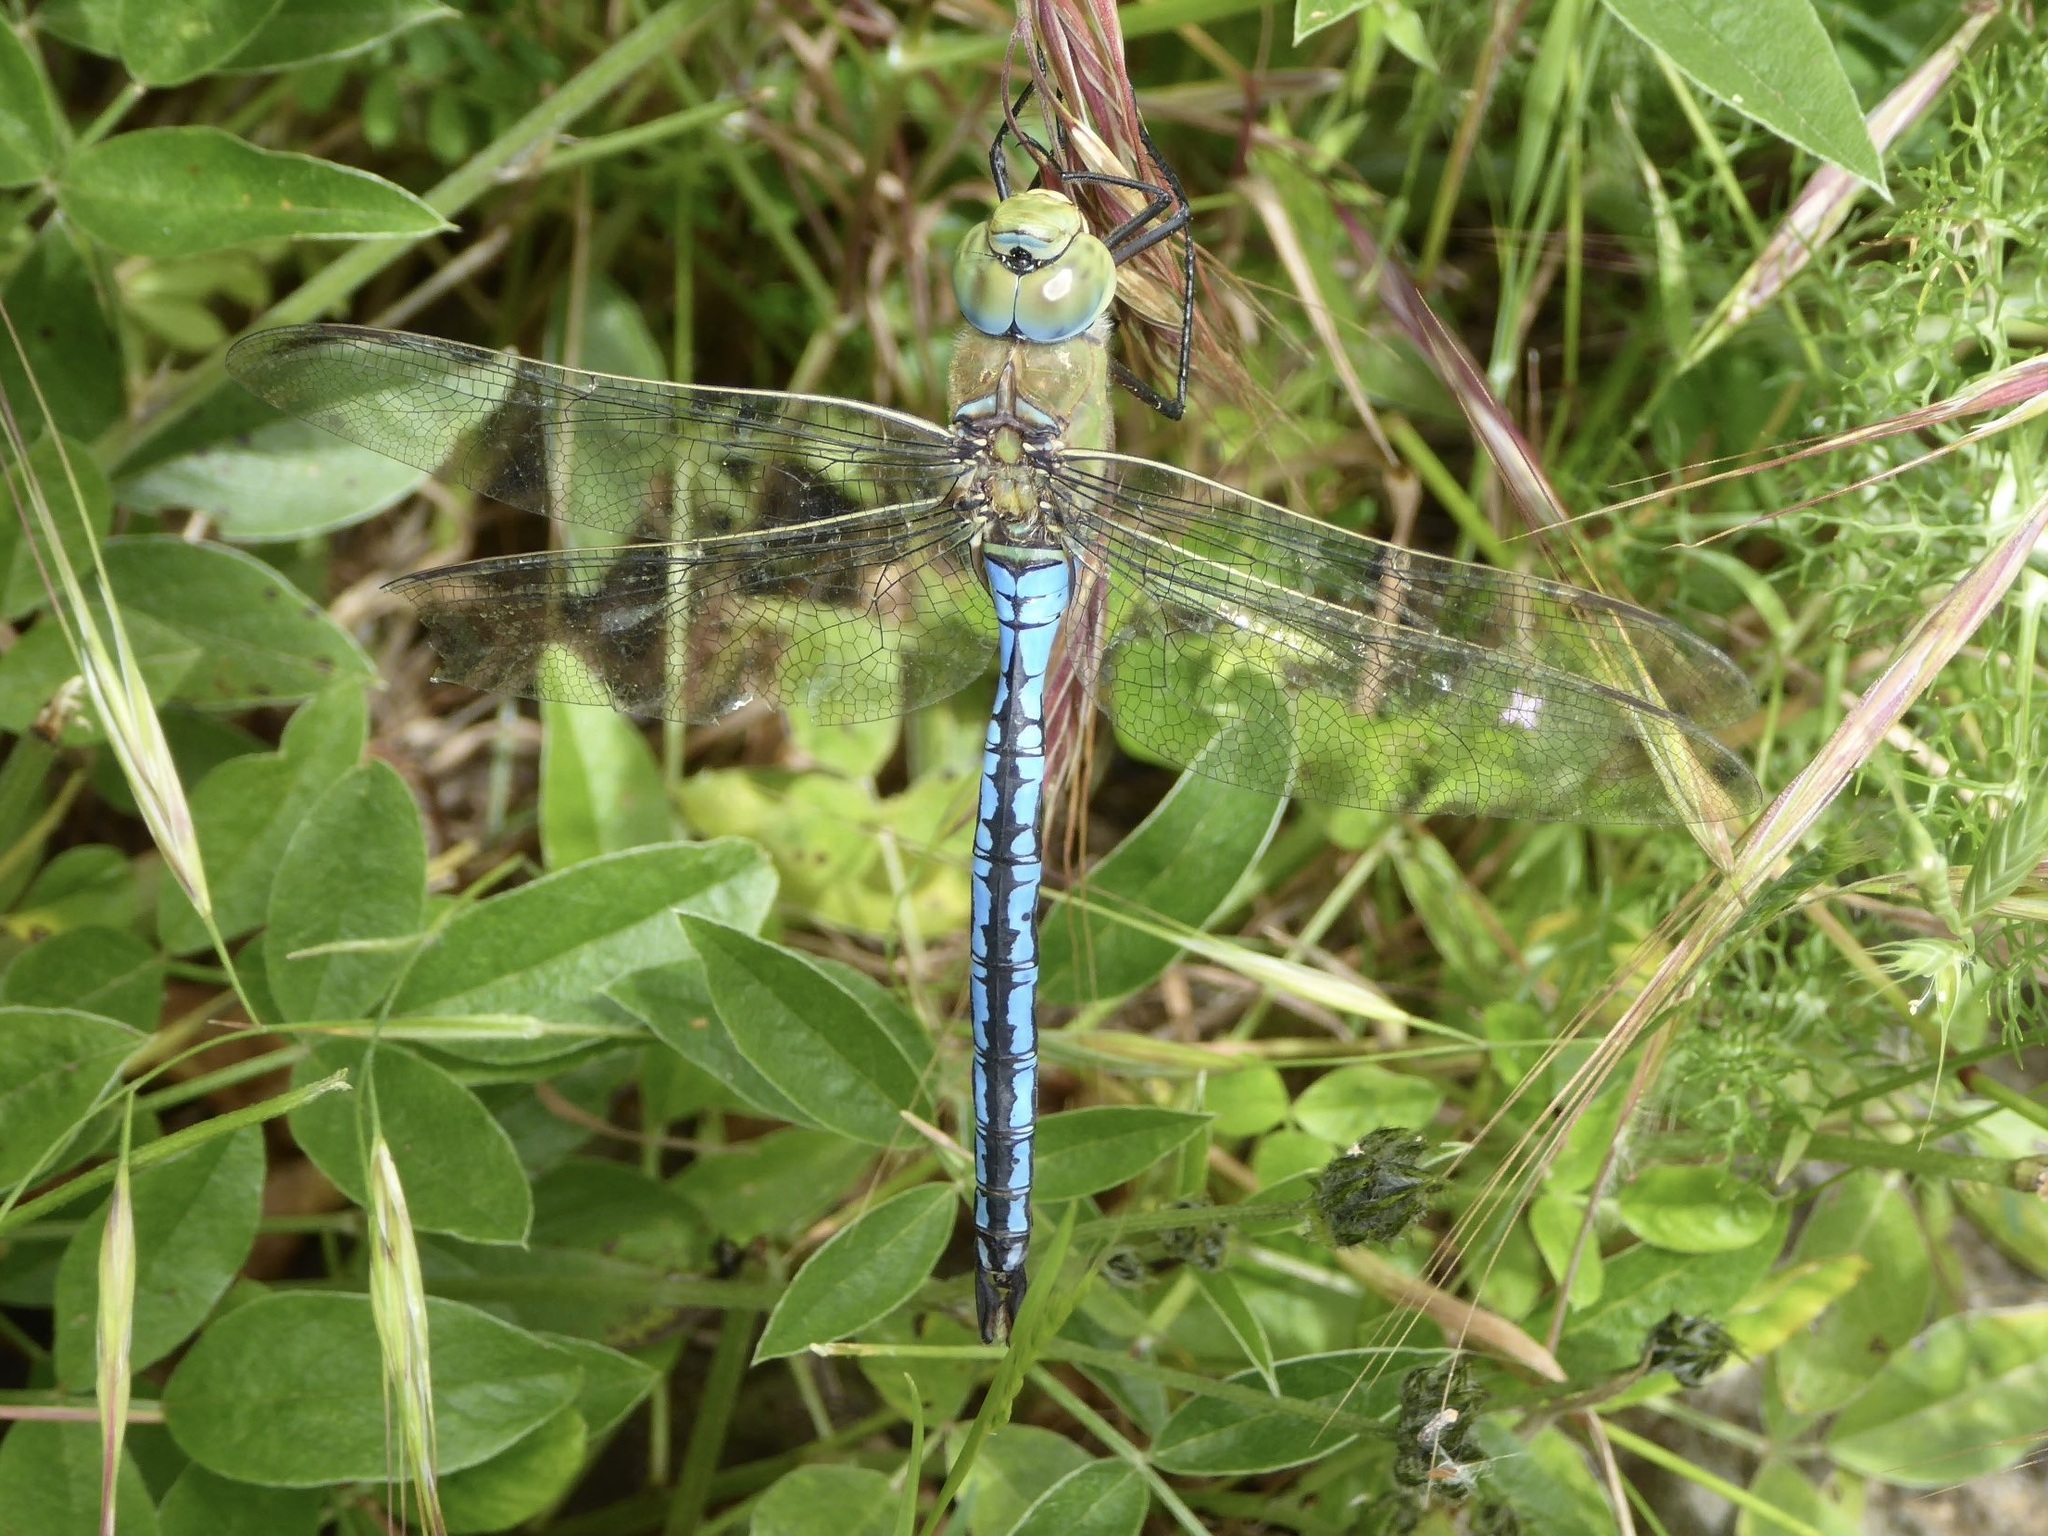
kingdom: Animalia
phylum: Arthropoda
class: Insecta
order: Odonata
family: Aeshnidae
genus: Anax
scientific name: Anax imperator
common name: Emperor dragonfly
